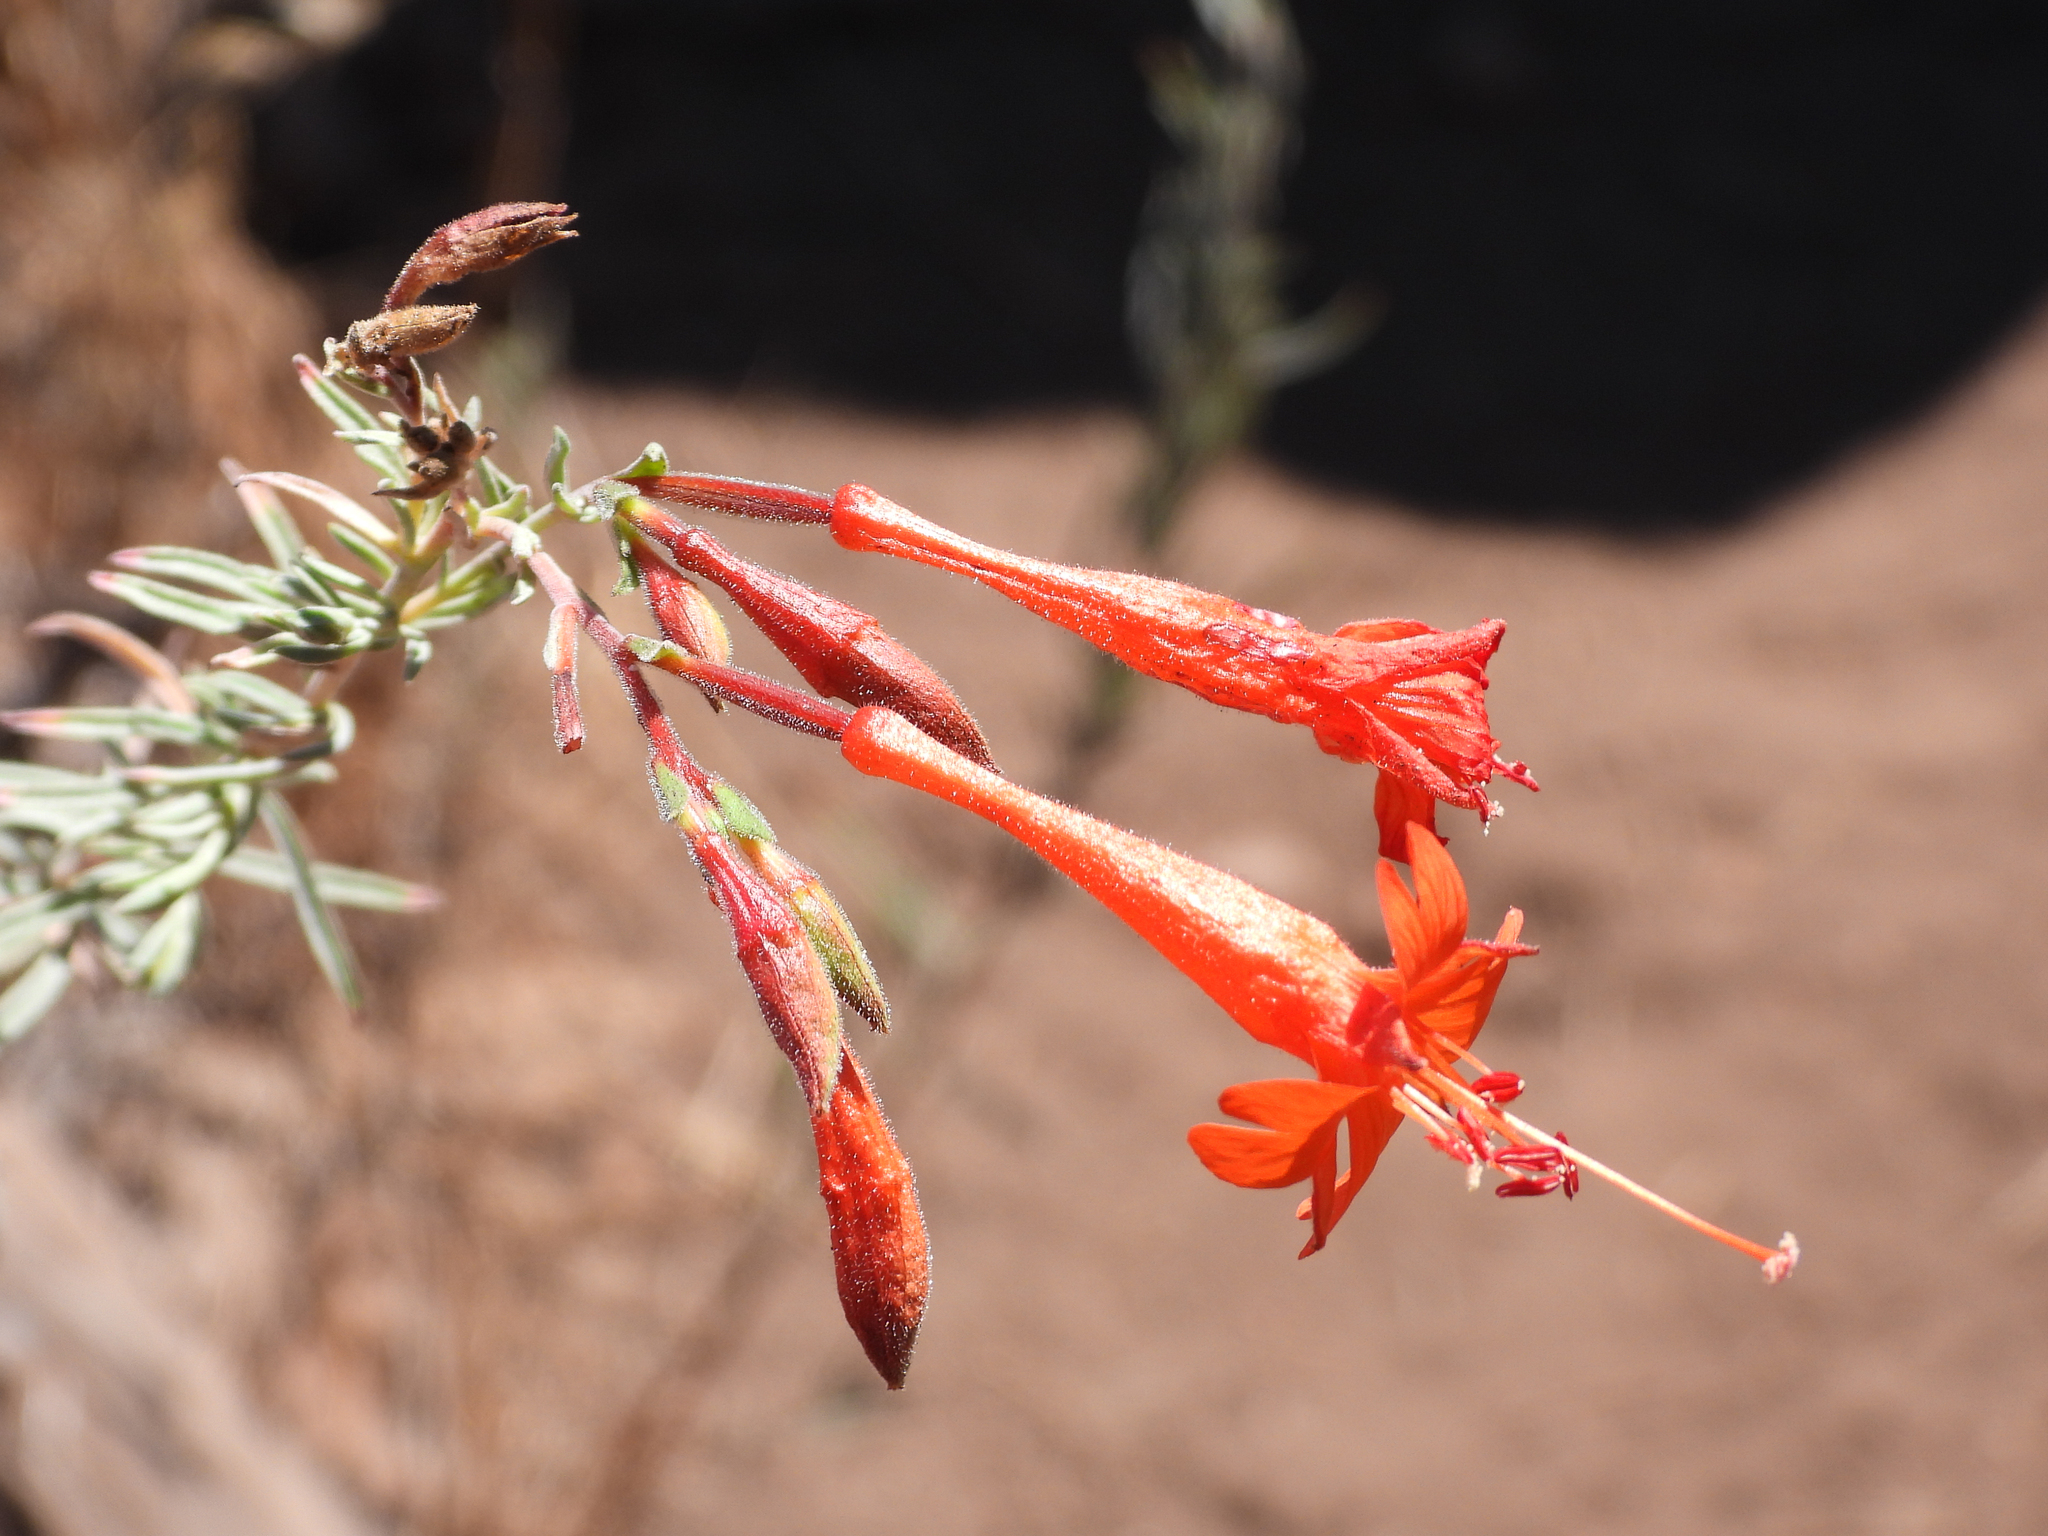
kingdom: Plantae
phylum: Tracheophyta
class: Magnoliopsida
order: Myrtales
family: Onagraceae
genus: Epilobium
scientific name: Epilobium canum
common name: California-fuchsia
